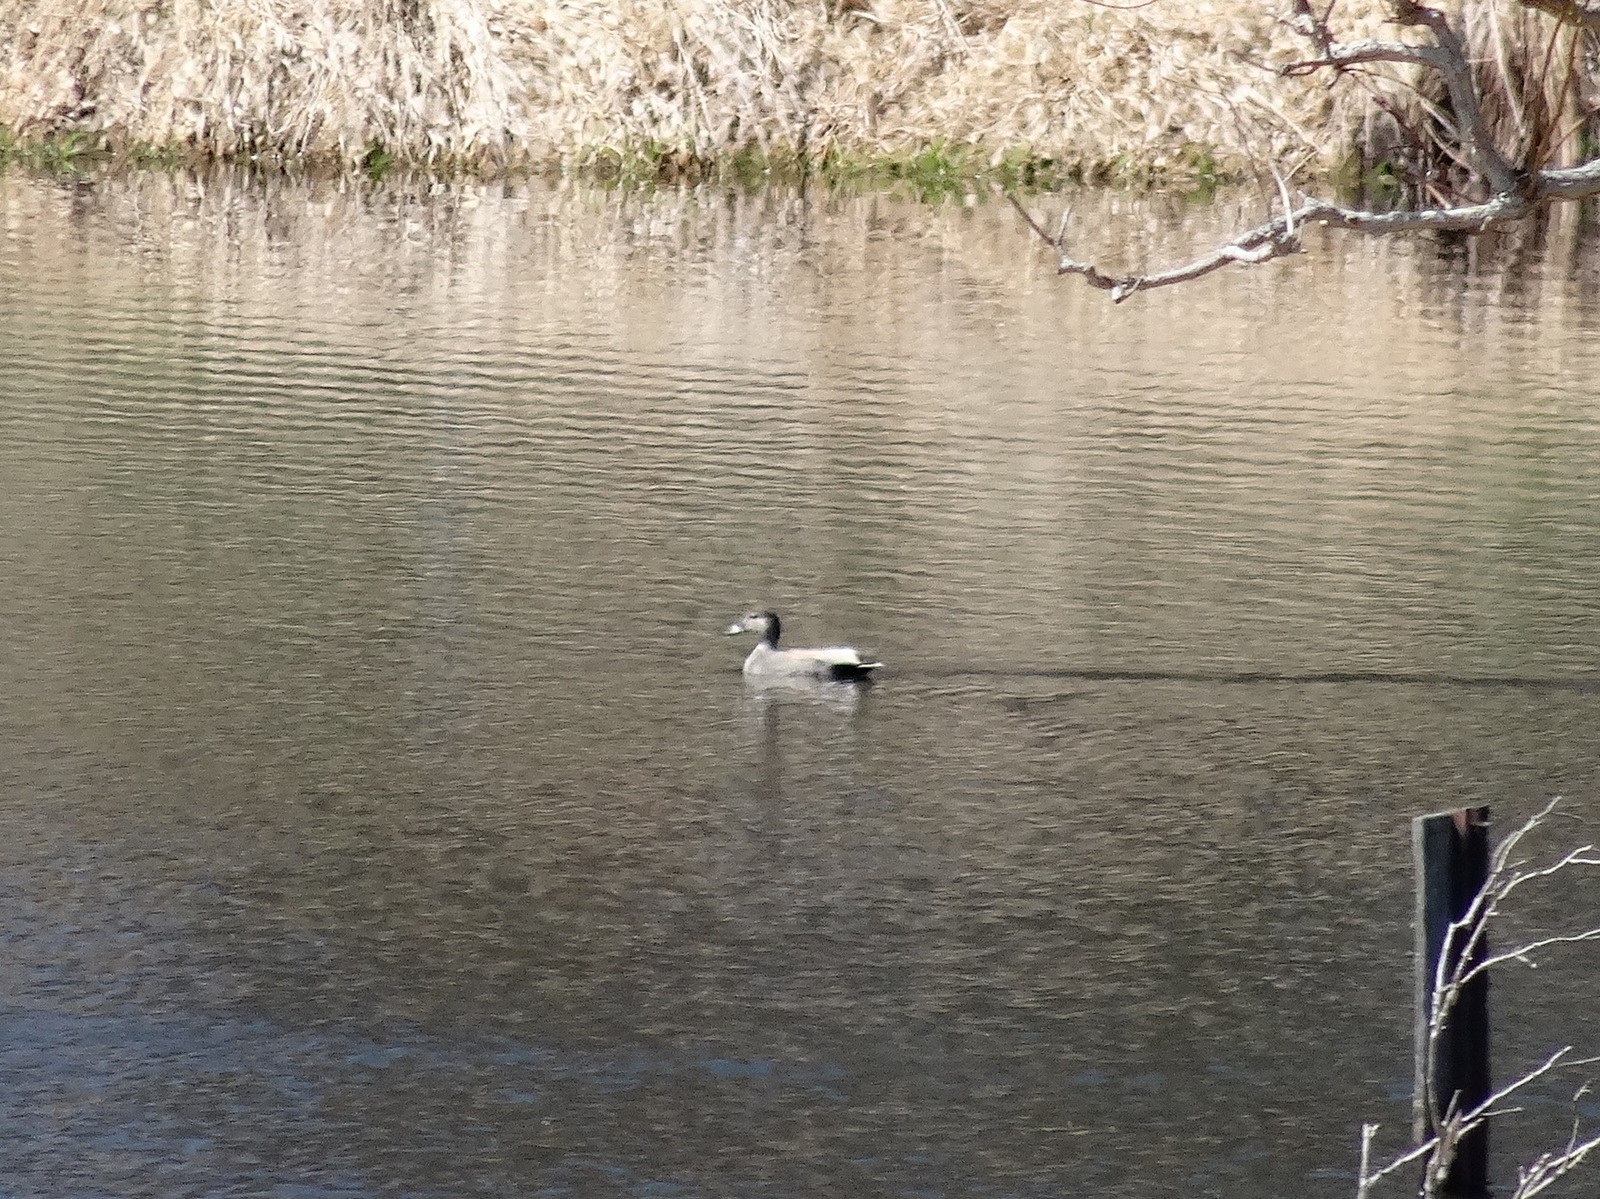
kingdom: Animalia
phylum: Chordata
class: Aves
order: Anseriformes
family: Anatidae
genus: Mareca
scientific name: Mareca strepera
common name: Gadwall
